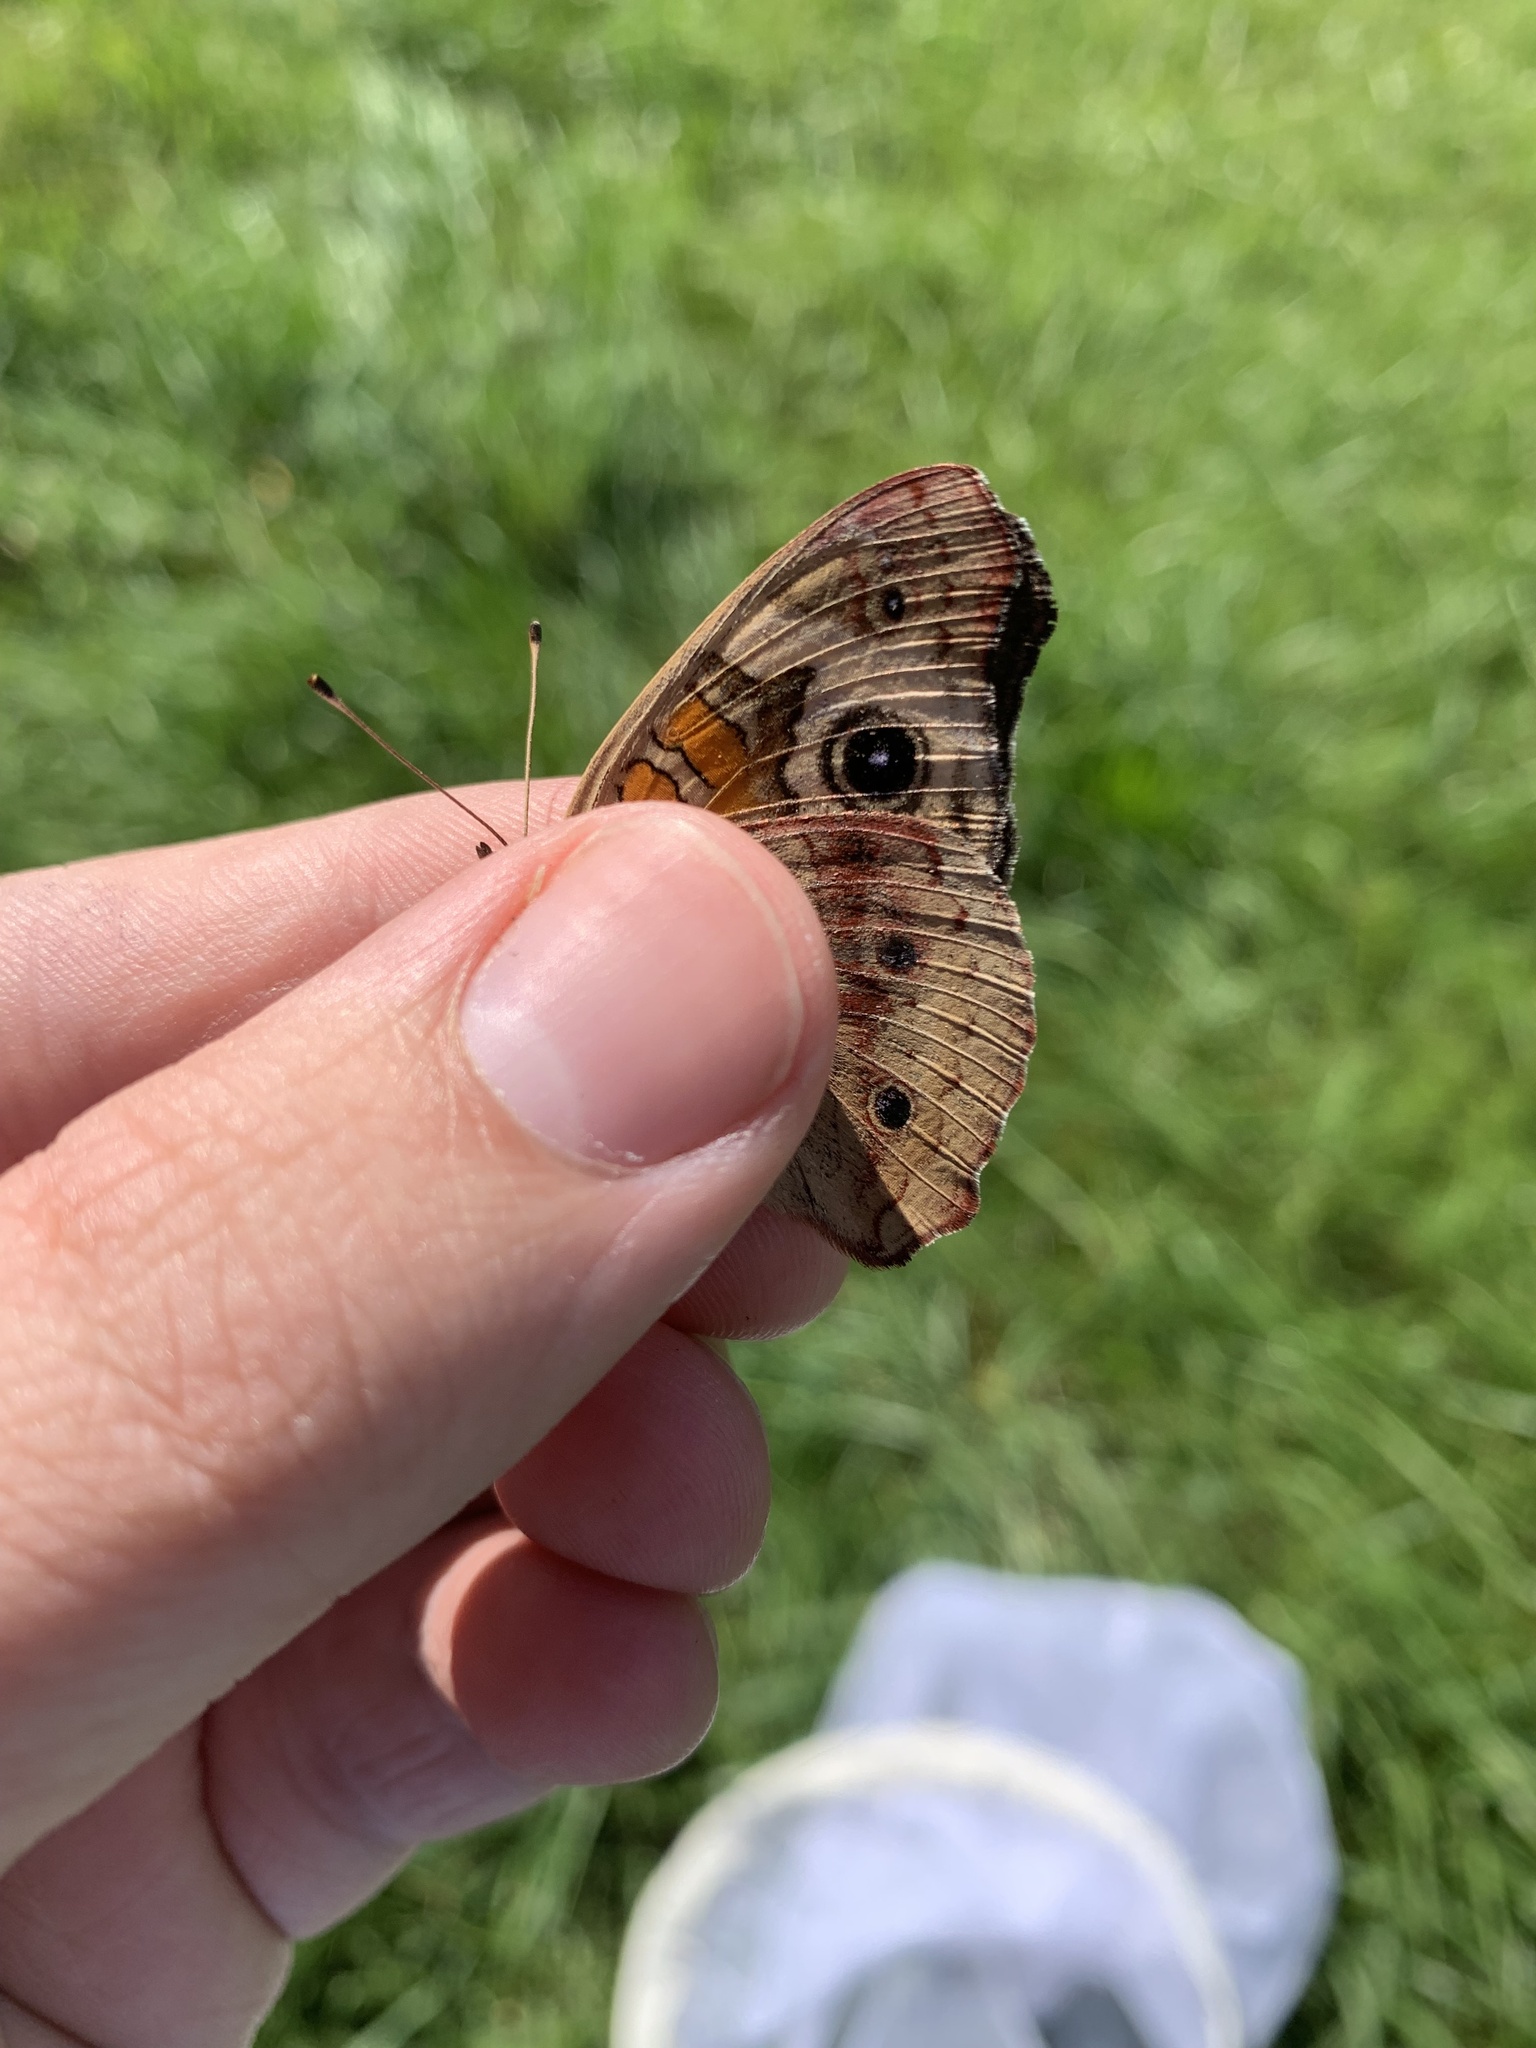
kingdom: Animalia
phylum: Arthropoda
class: Insecta
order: Lepidoptera
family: Nymphalidae
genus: Junonia
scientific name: Junonia coenia
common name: Common buckeye
